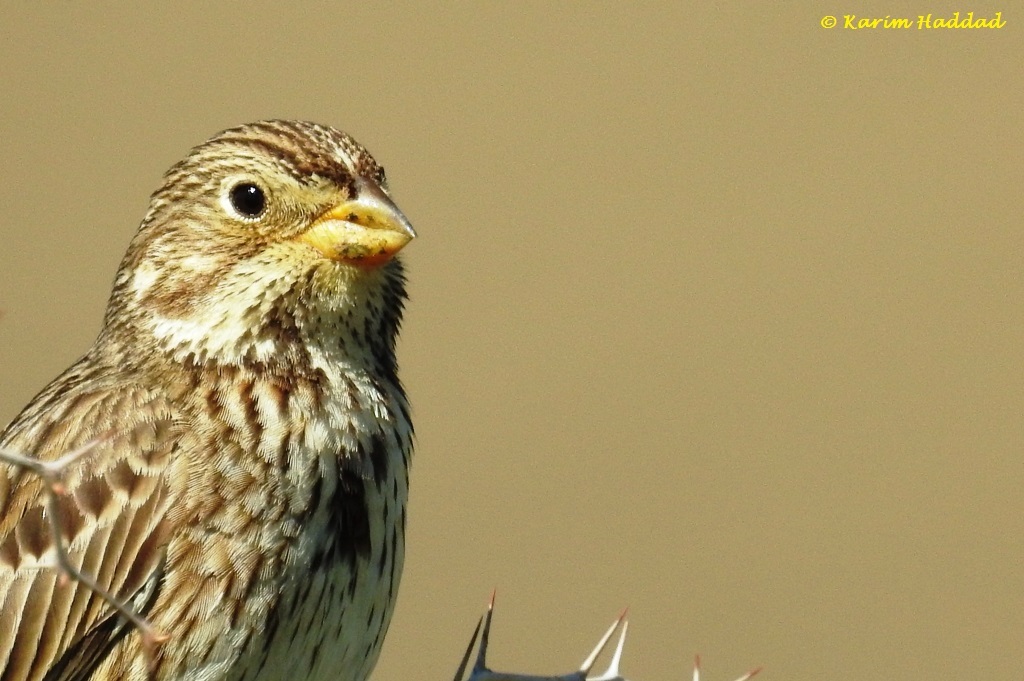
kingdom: Animalia
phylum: Chordata
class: Aves
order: Passeriformes
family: Emberizidae
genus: Emberiza
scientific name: Emberiza calandra
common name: Corn bunting
